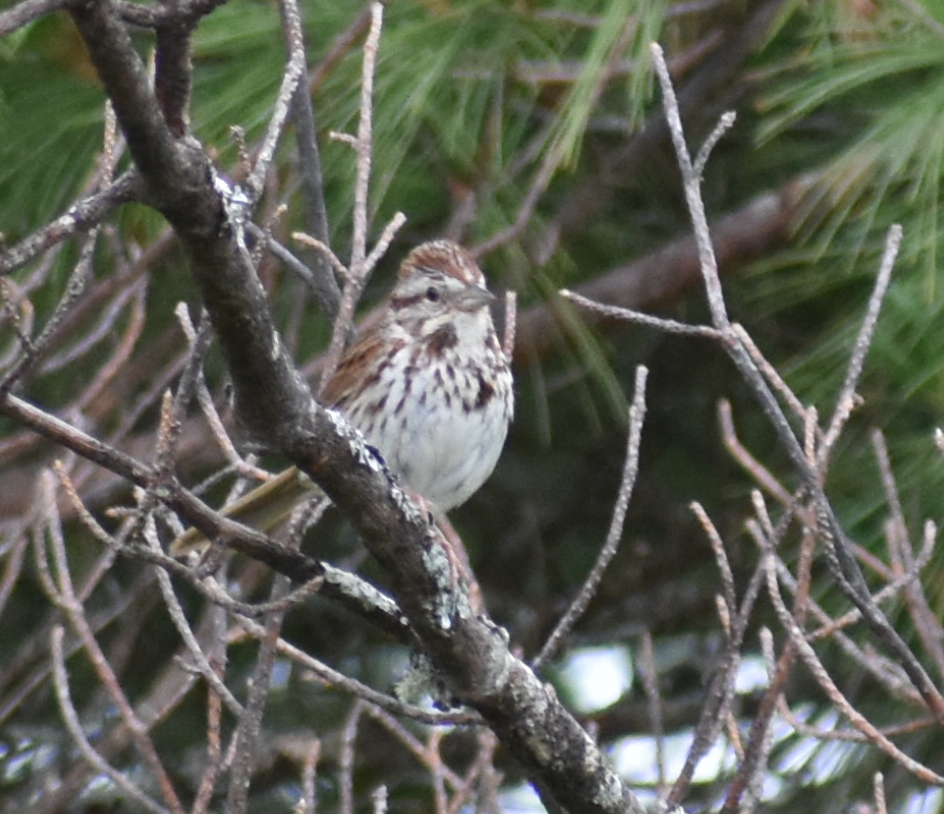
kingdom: Animalia
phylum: Chordata
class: Aves
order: Passeriformes
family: Passerellidae
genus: Melospiza
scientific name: Melospiza melodia
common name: Song sparrow
